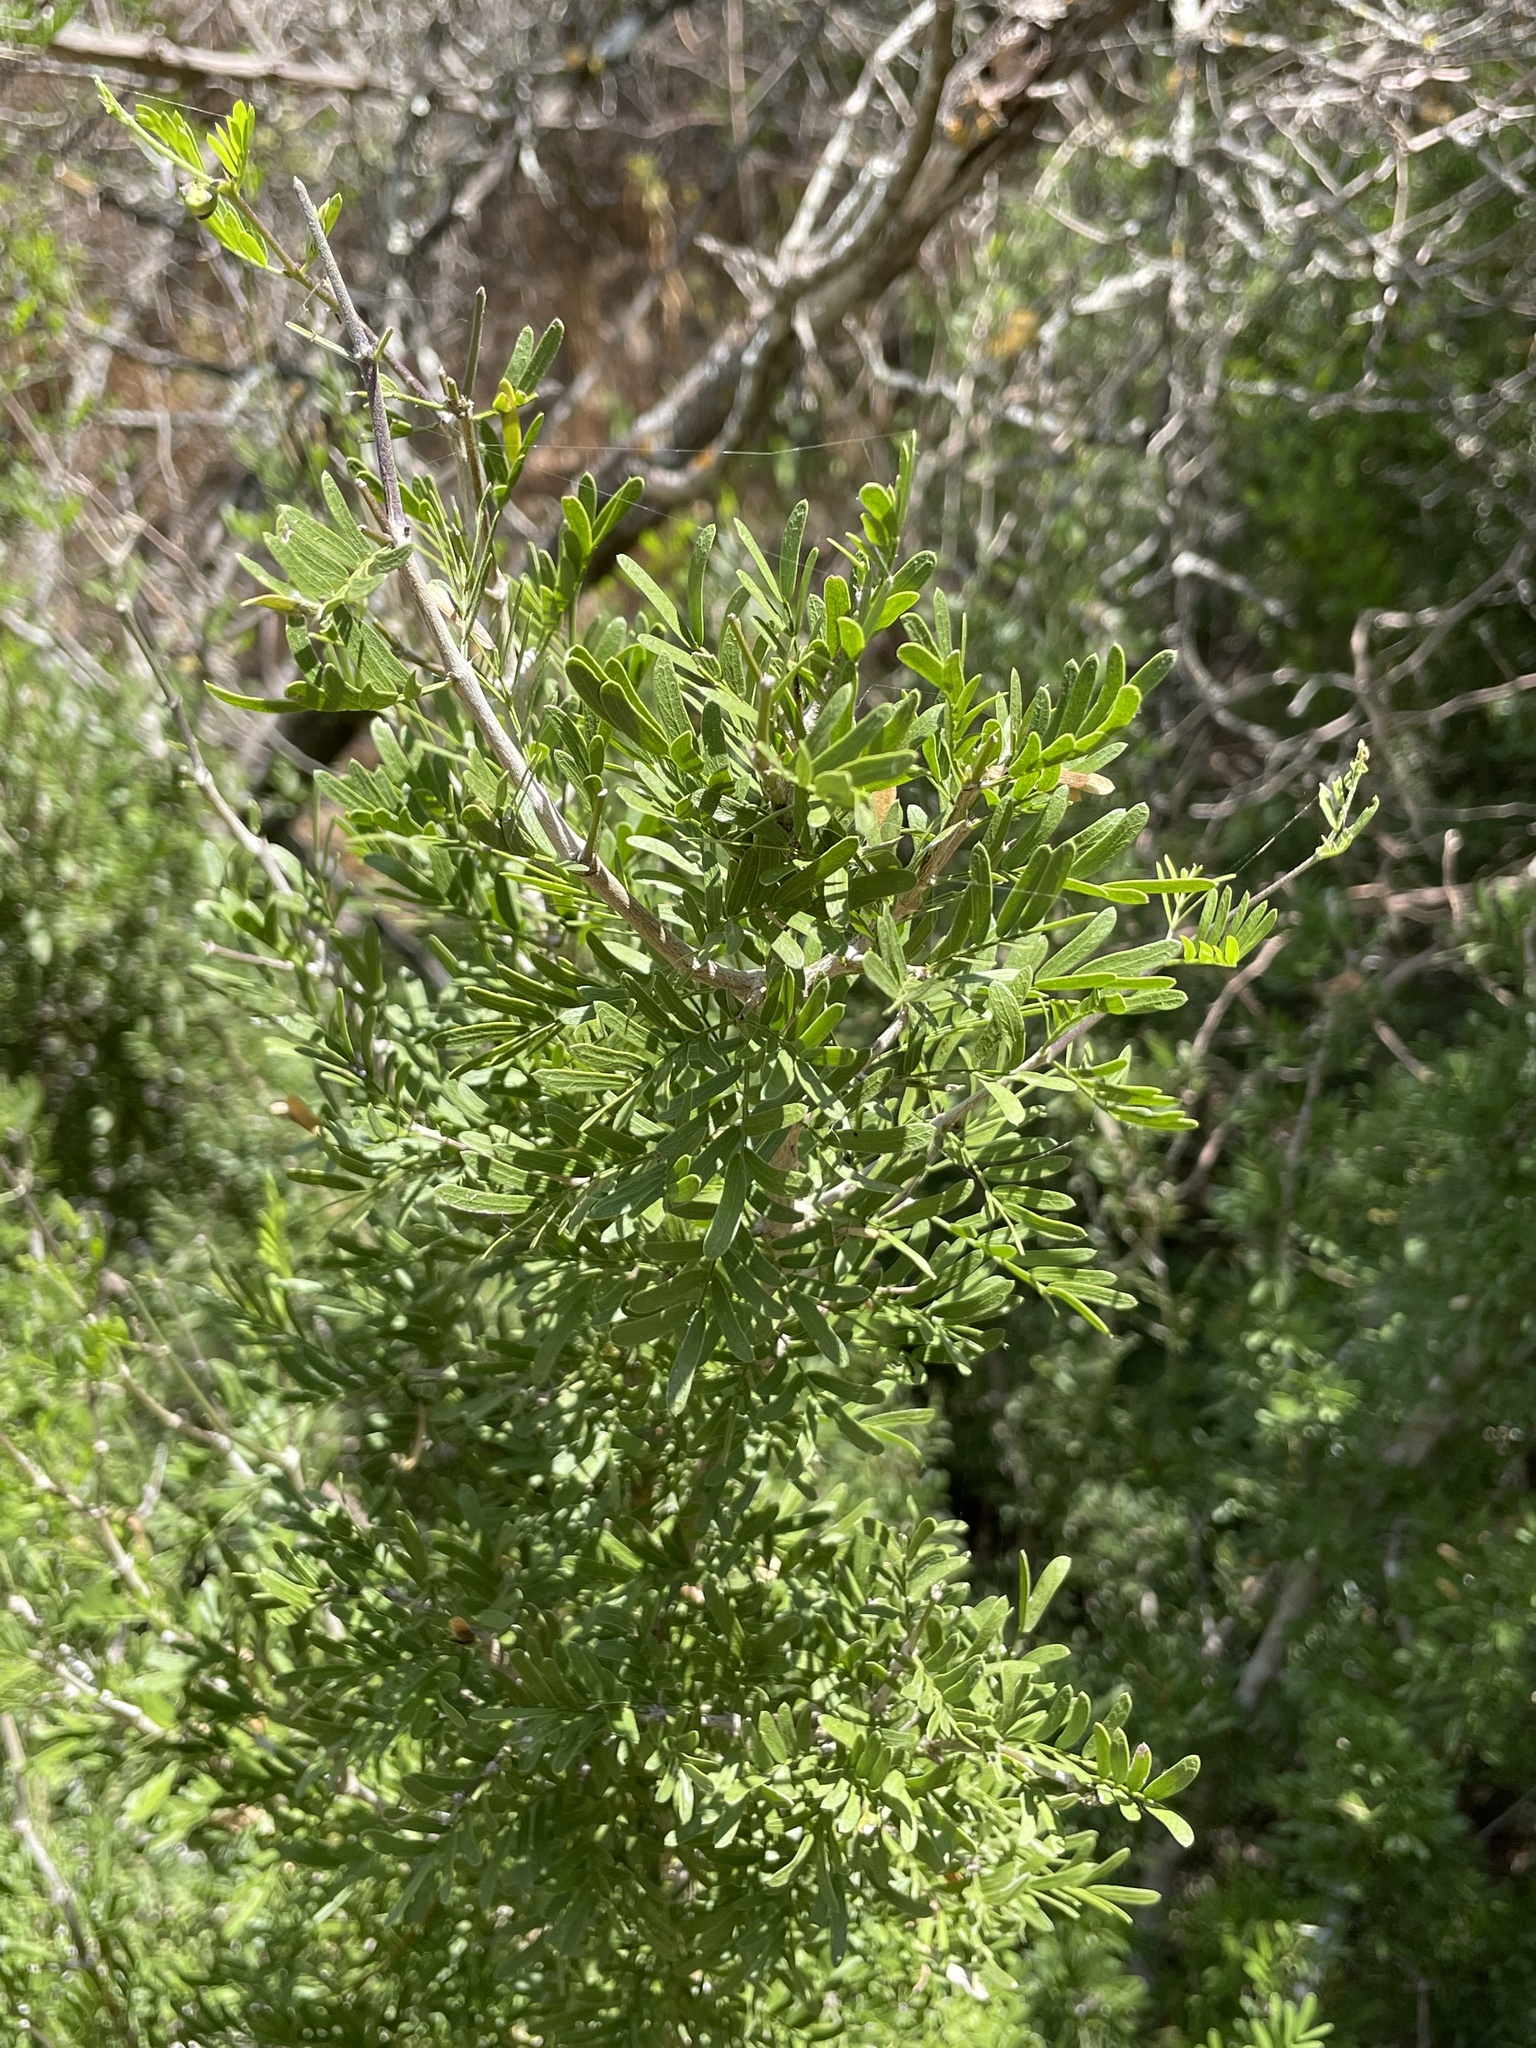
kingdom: Plantae
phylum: Tracheophyta
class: Magnoliopsida
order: Zygophyllales
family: Zygophyllaceae
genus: Porlieria
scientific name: Porlieria angustifolia
